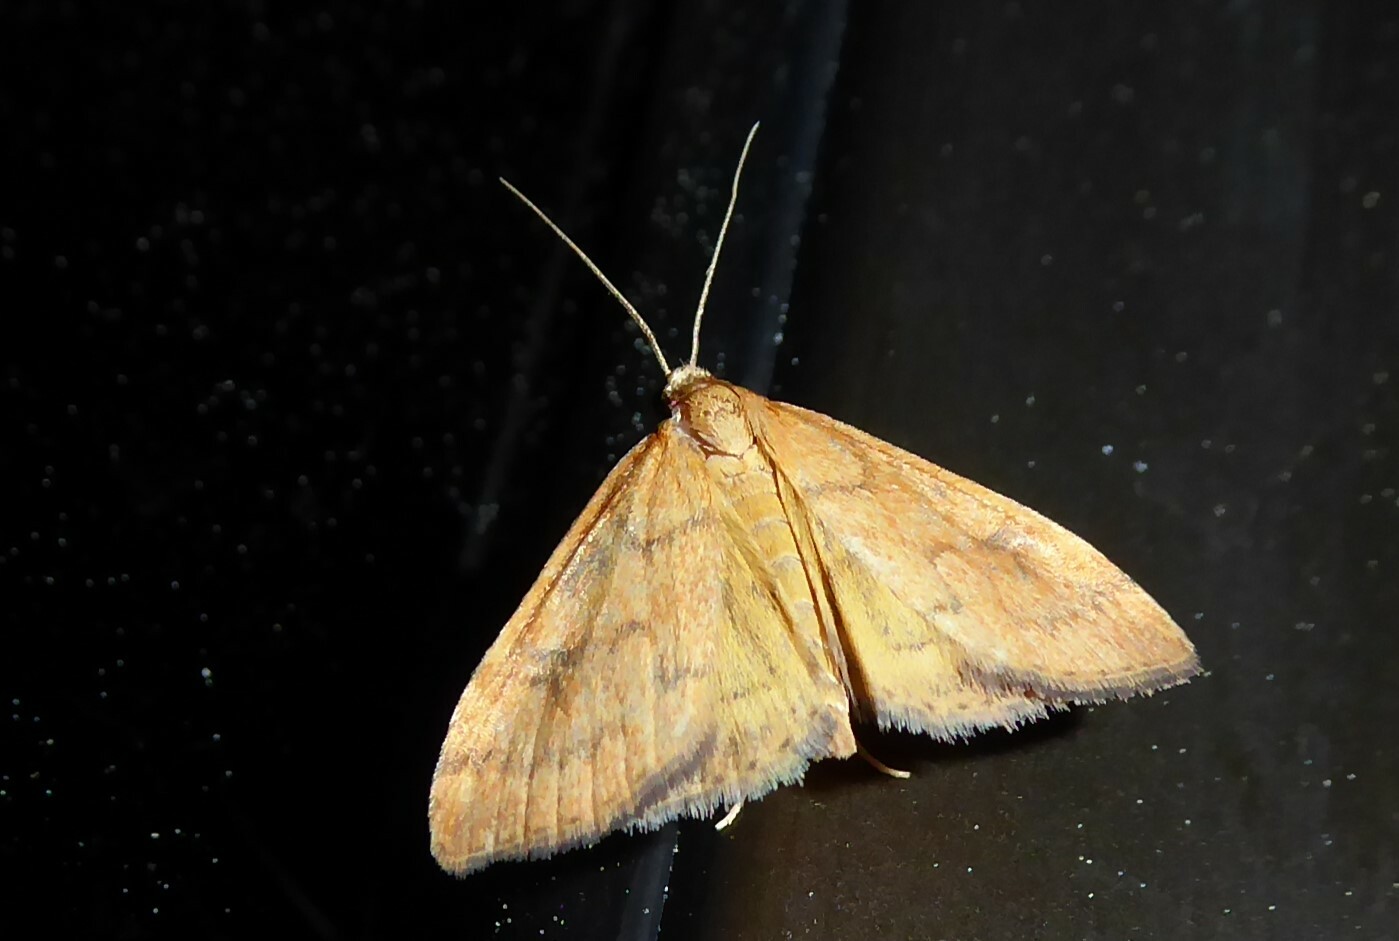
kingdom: Animalia
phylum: Arthropoda
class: Insecta
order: Lepidoptera
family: Crambidae
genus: Udea
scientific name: Udea Mnesictena flavidalis
